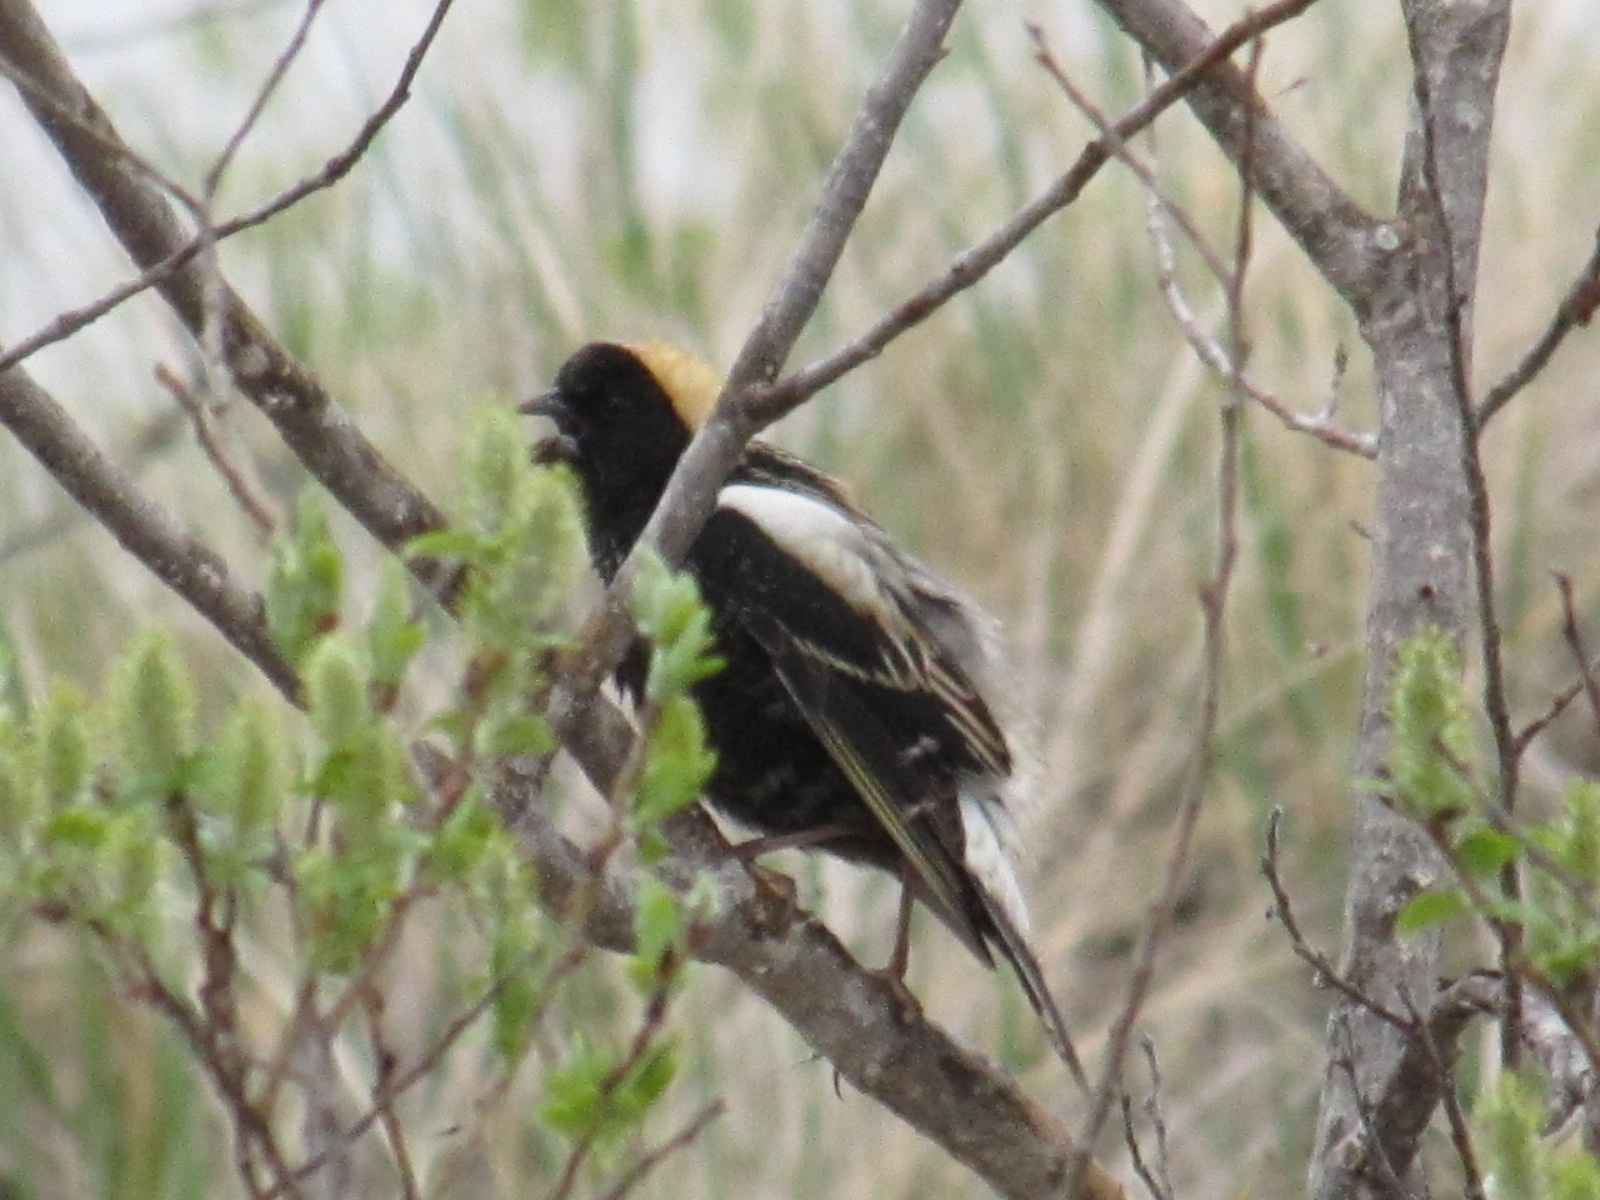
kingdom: Animalia
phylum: Chordata
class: Aves
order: Passeriformes
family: Icteridae
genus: Dolichonyx
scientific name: Dolichonyx oryzivorus
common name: Bobolink
